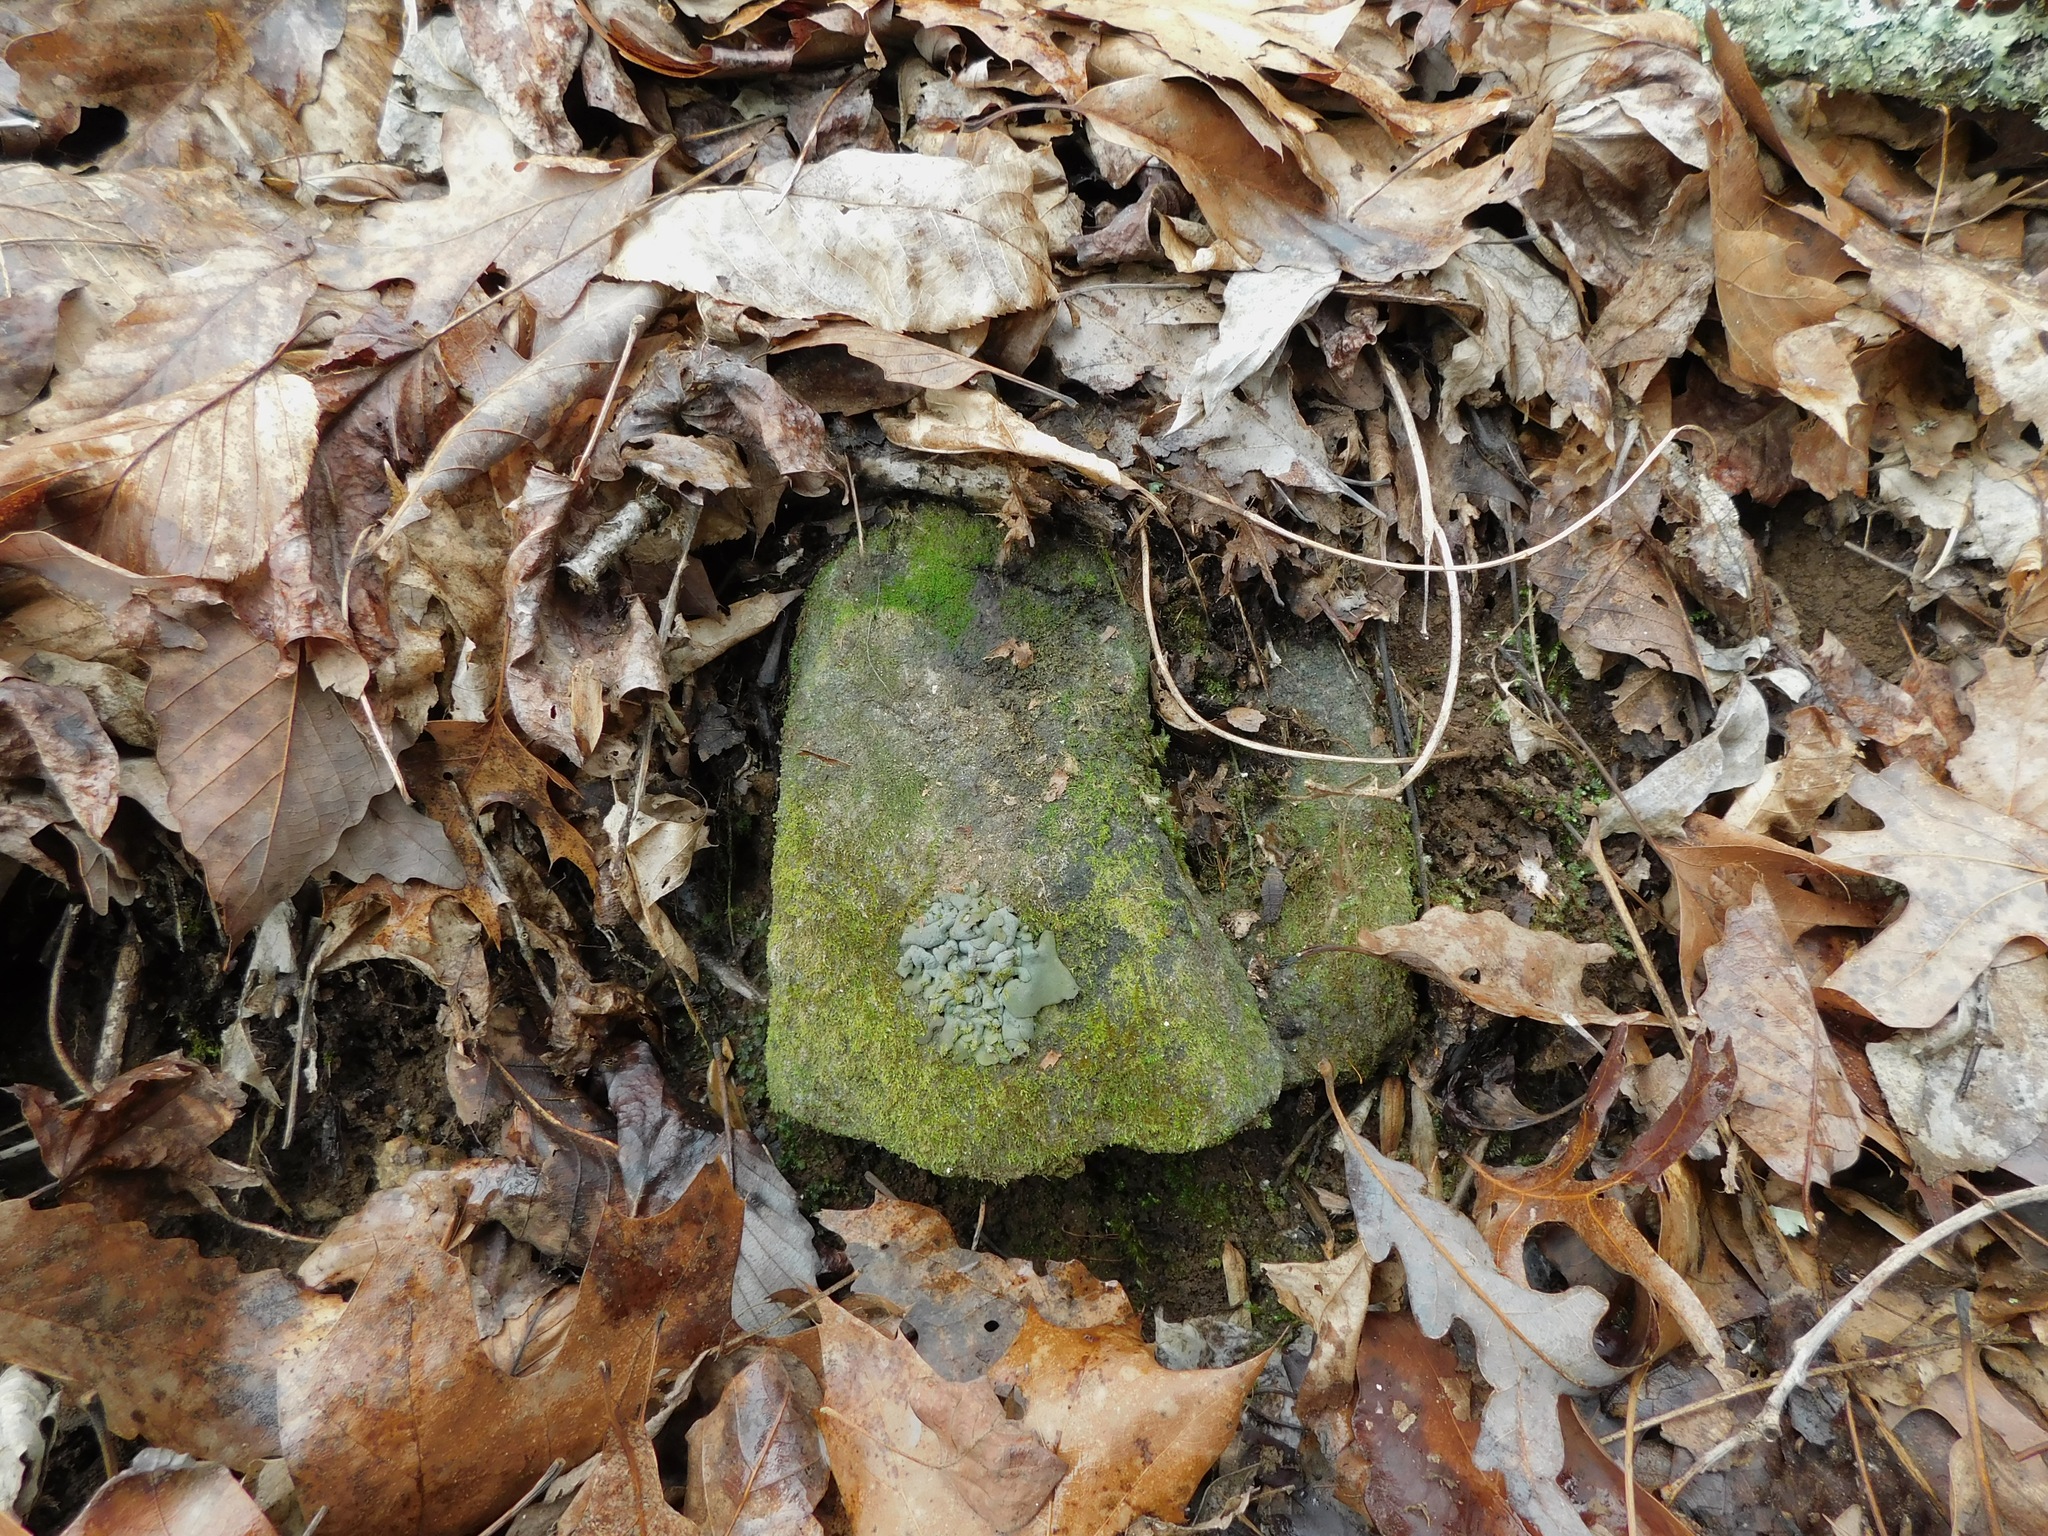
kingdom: Fungi
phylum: Ascomycota
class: Eurotiomycetes
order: Verrucariales
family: Verrucariaceae
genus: Dermatocarpon
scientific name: Dermatocarpon muhlenbergii
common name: Muhlenberg's stippleback lichen
